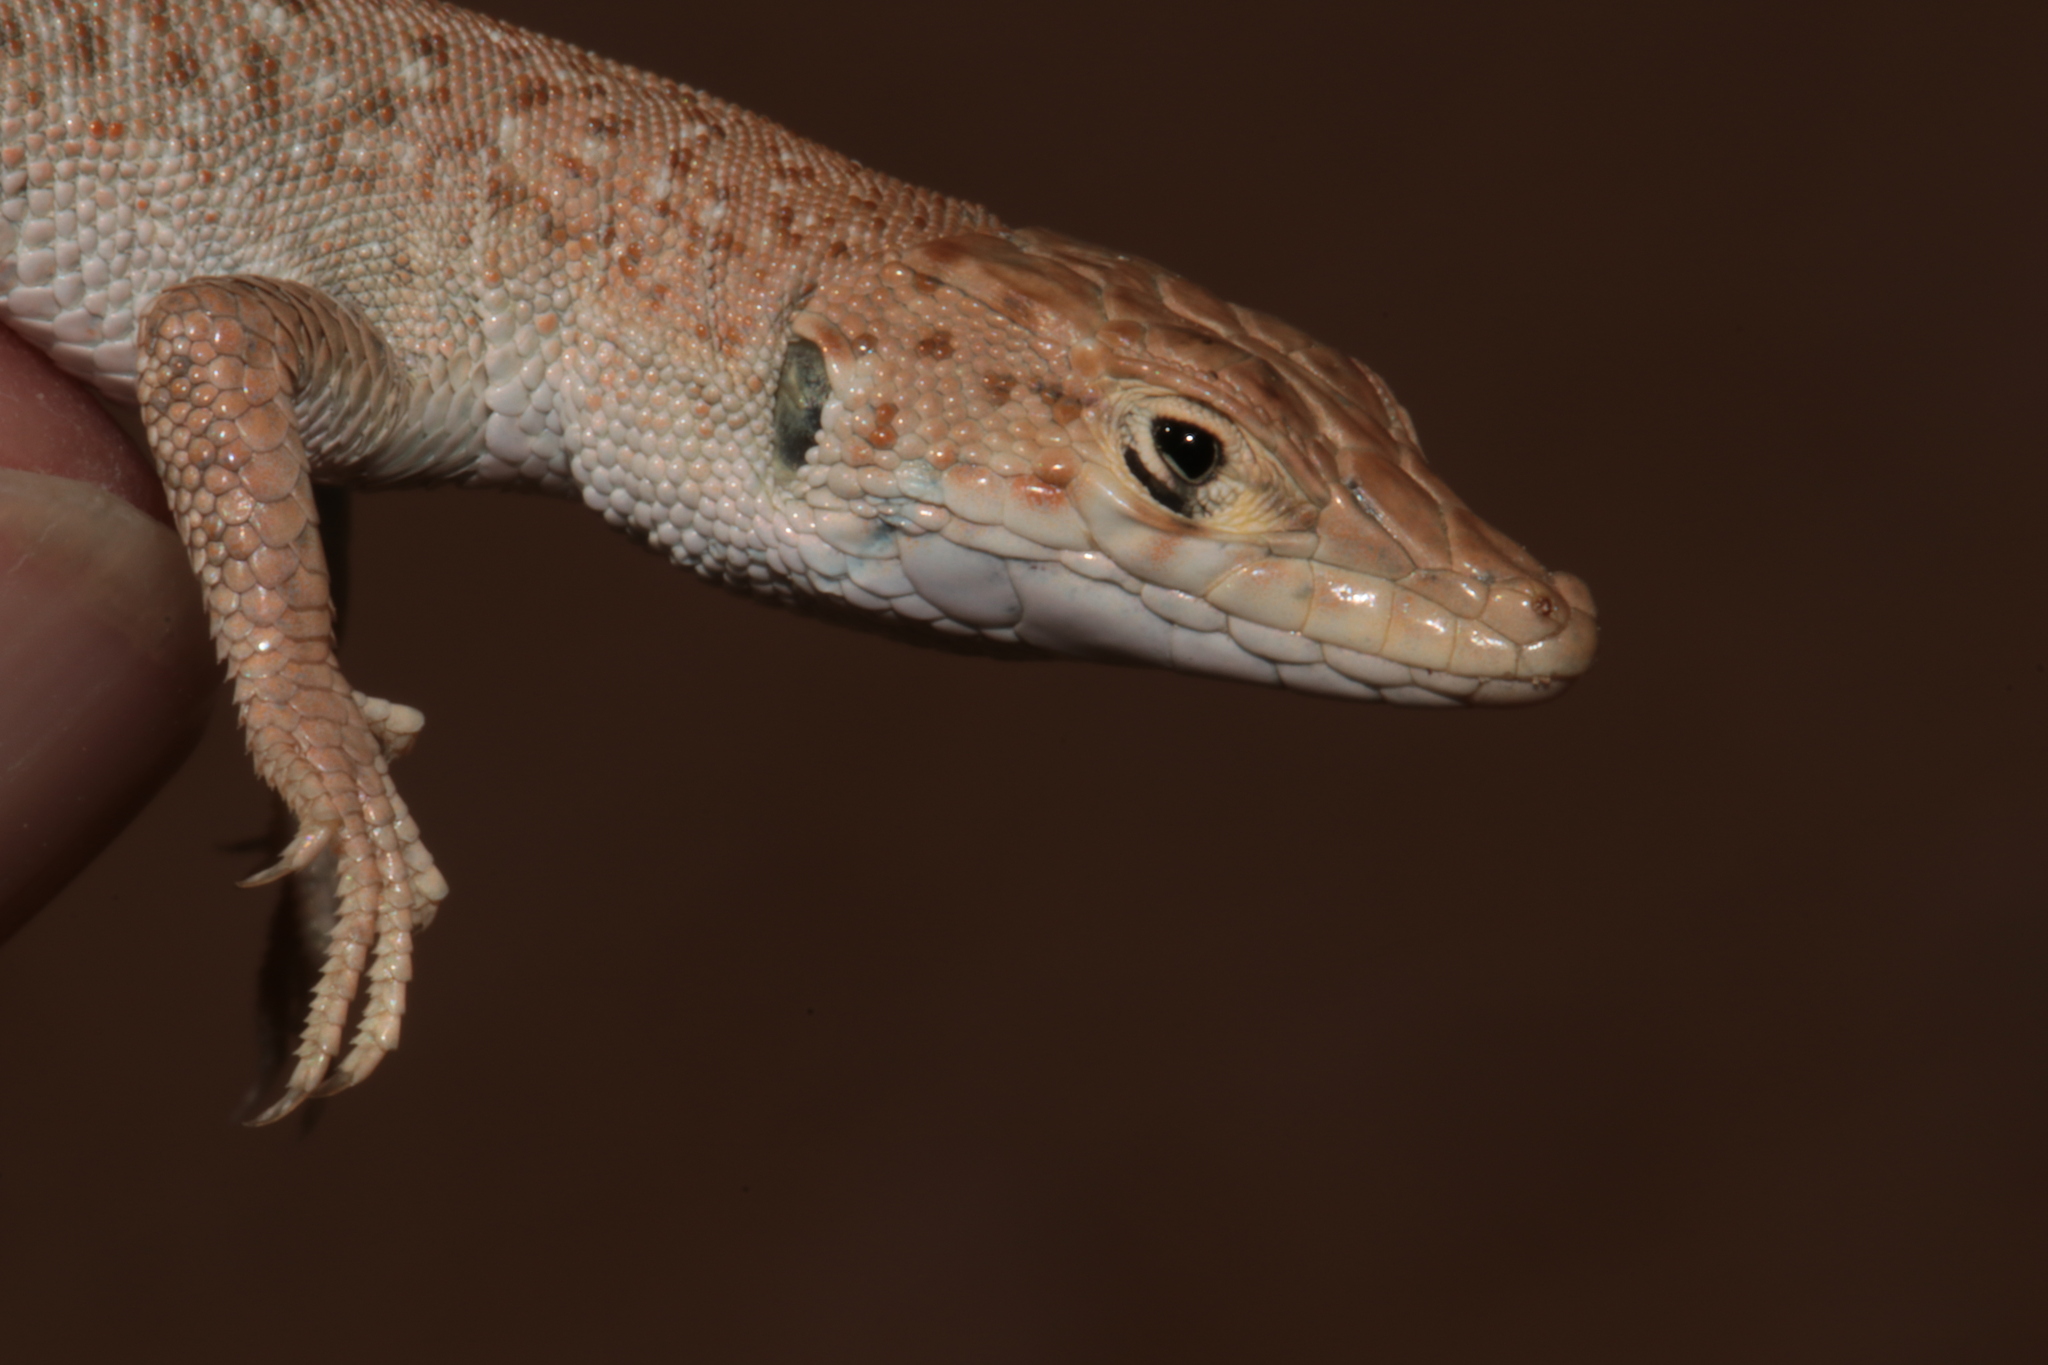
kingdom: Animalia
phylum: Chordata
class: Squamata
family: Lacertidae
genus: Mesalina
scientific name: Mesalina guttulata
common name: Desert lacerta
